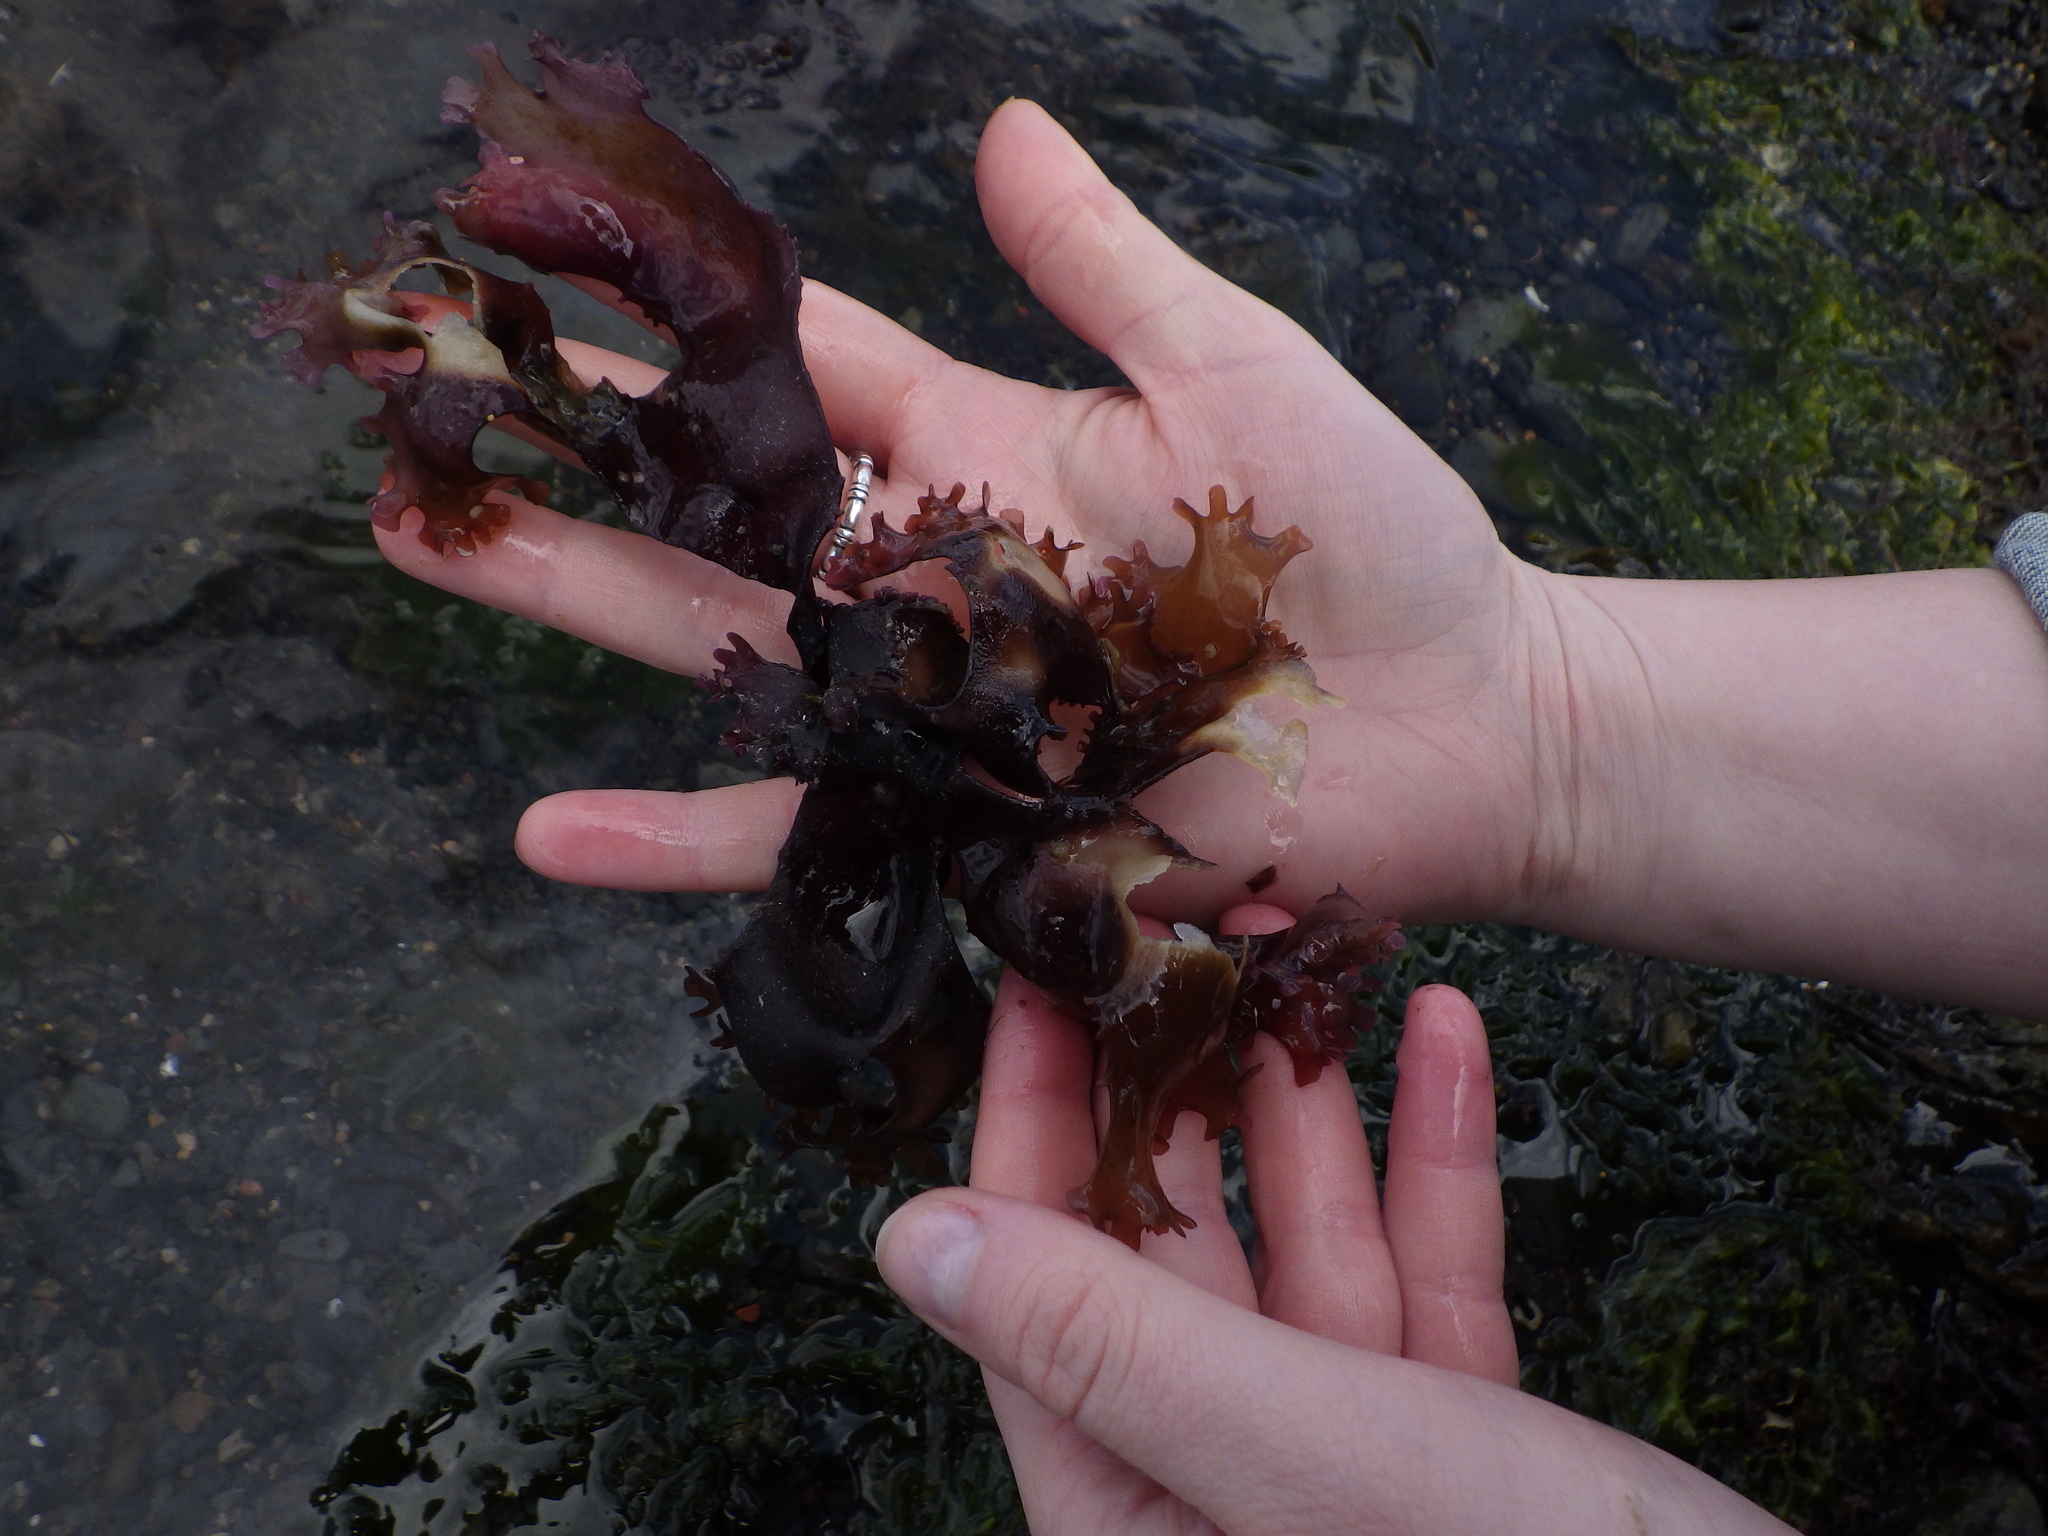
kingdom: Plantae
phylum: Rhodophyta
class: Florideophyceae
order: Gigartinales
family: Gigartinaceae
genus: Chondrus
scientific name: Chondrus crispus
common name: Carrageen
